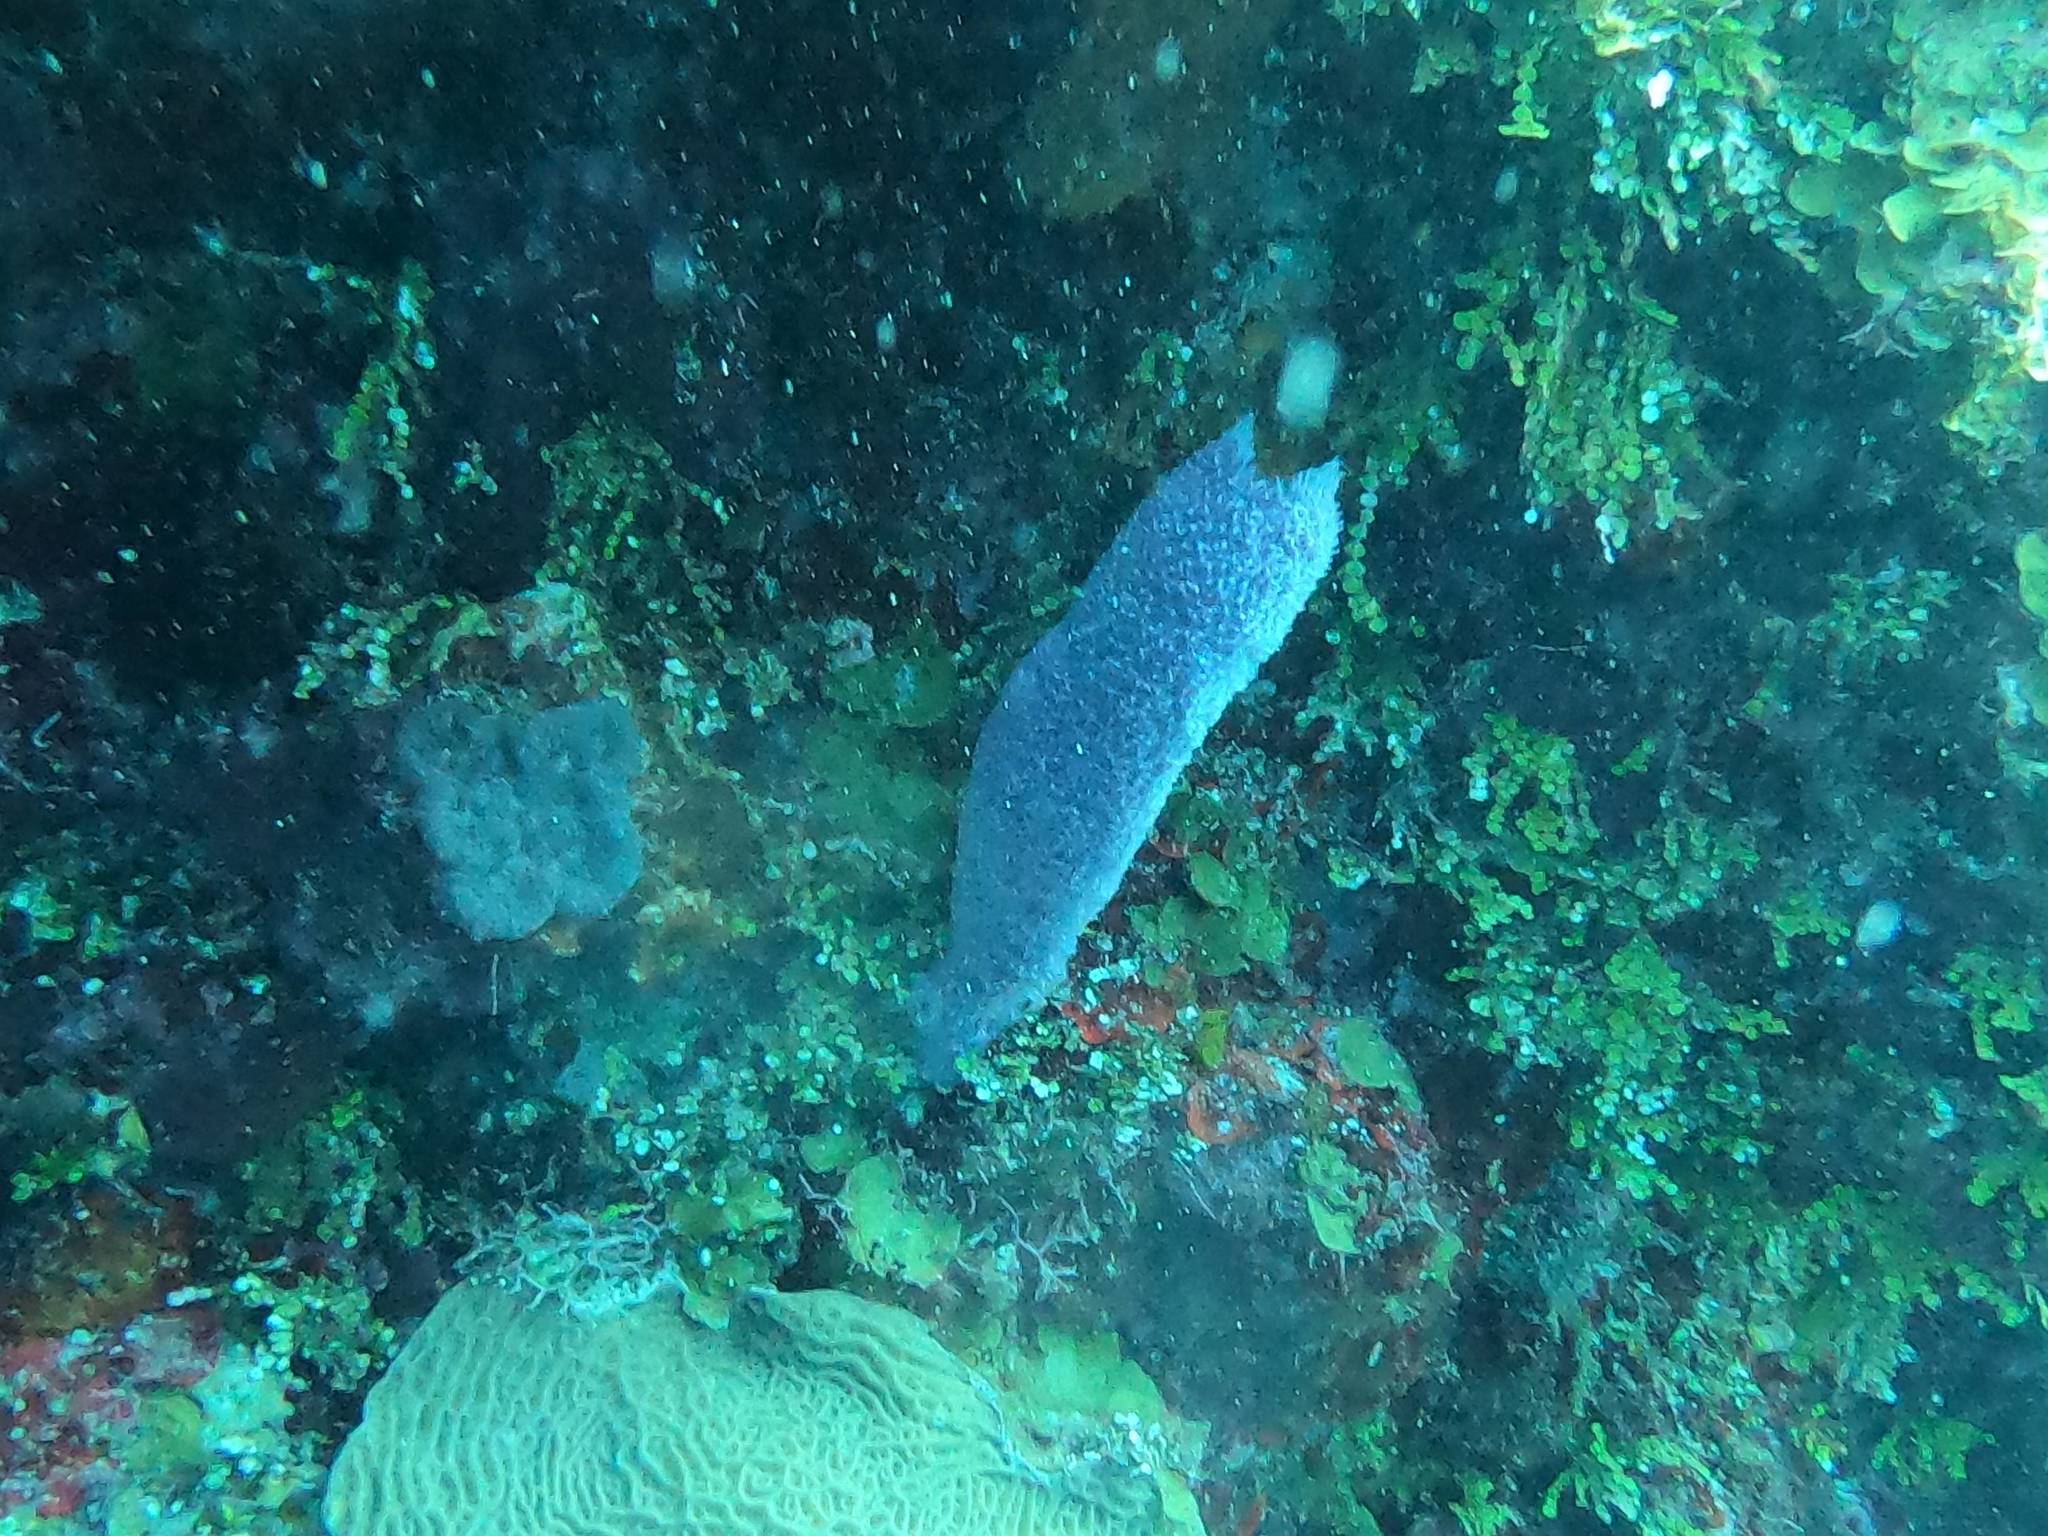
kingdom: Animalia
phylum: Porifera
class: Demospongiae
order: Haplosclerida
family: Niphatidae
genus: Niphates
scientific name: Niphates digitalis
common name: Pink vase sponge
